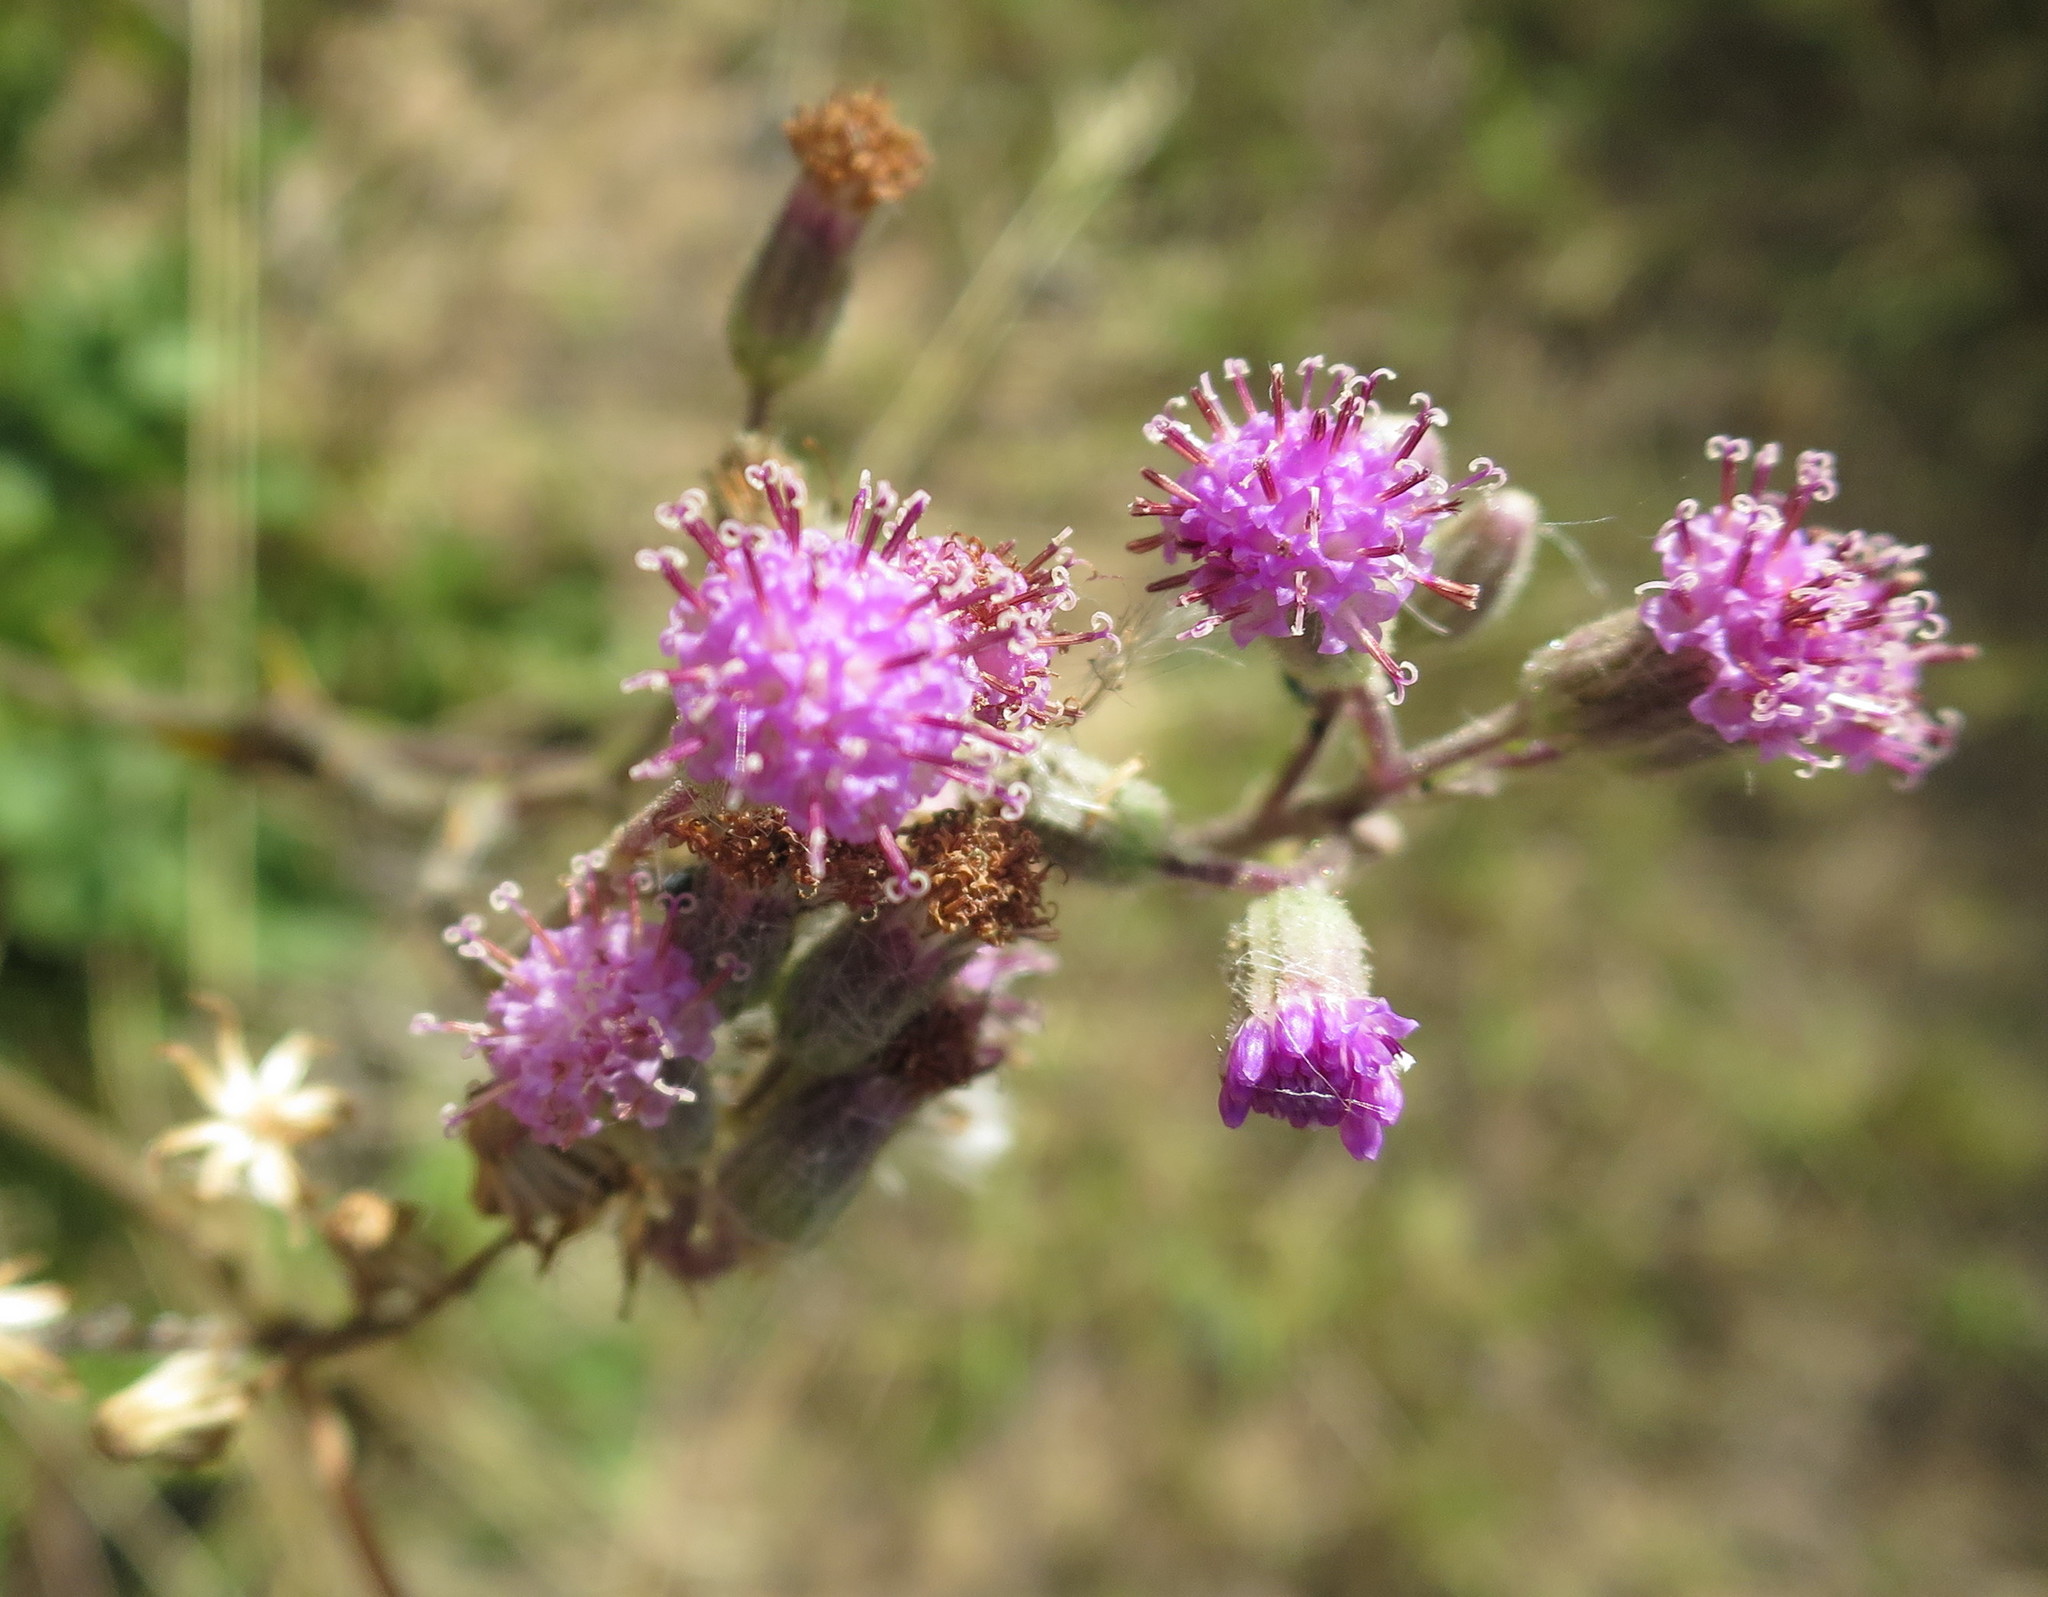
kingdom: Plantae
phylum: Tracheophyta
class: Magnoliopsida
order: Asterales
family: Asteraceae
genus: Senecio
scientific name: Senecio purpureus
